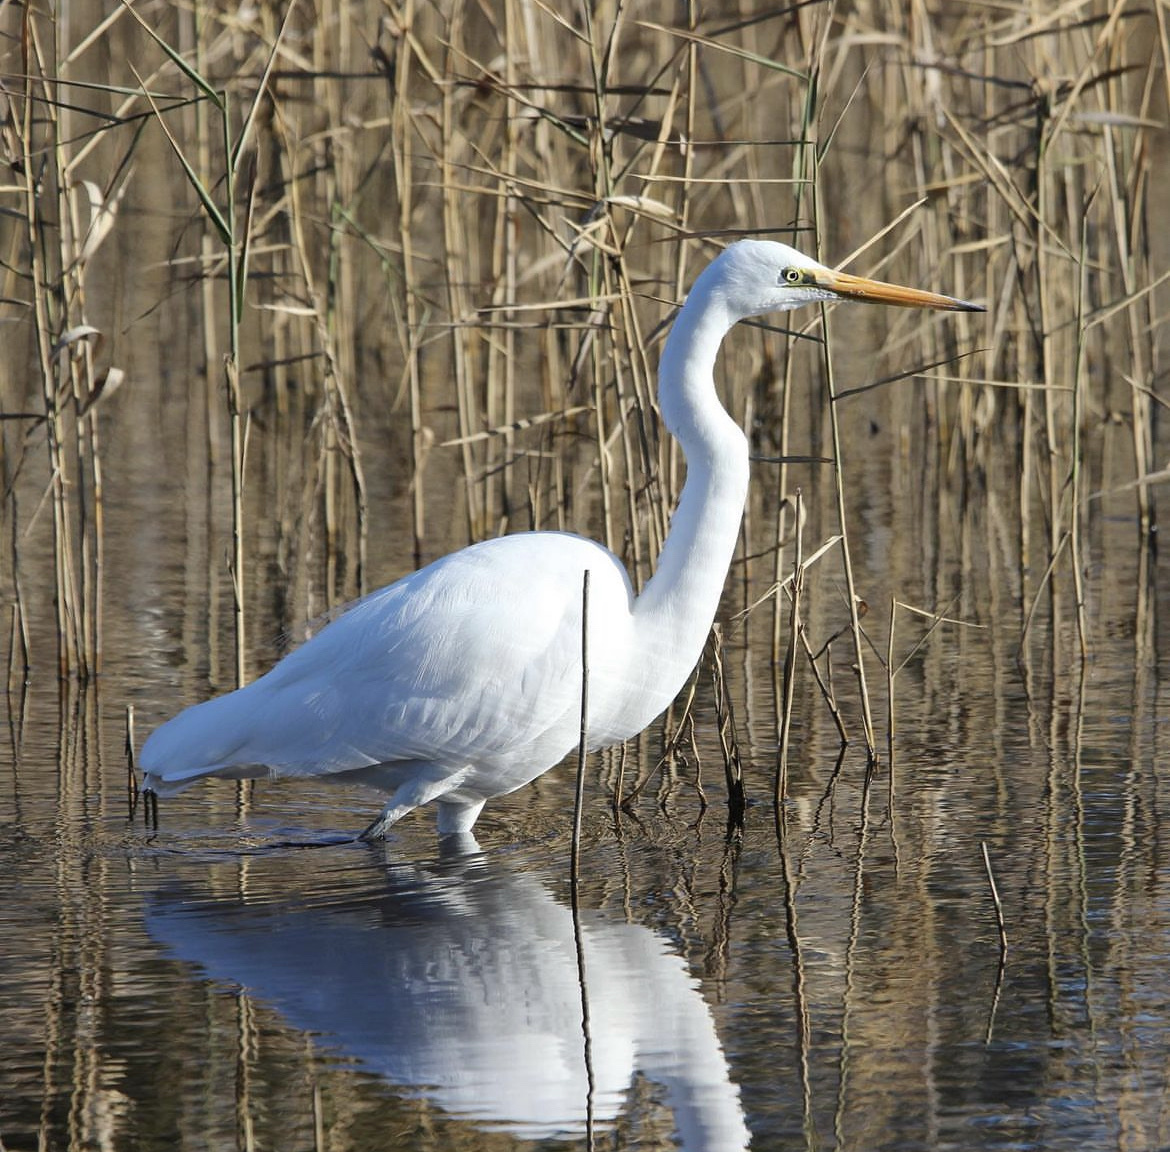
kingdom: Animalia
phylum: Chordata
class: Aves
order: Pelecaniformes
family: Ardeidae
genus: Ardea
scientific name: Ardea modesta
